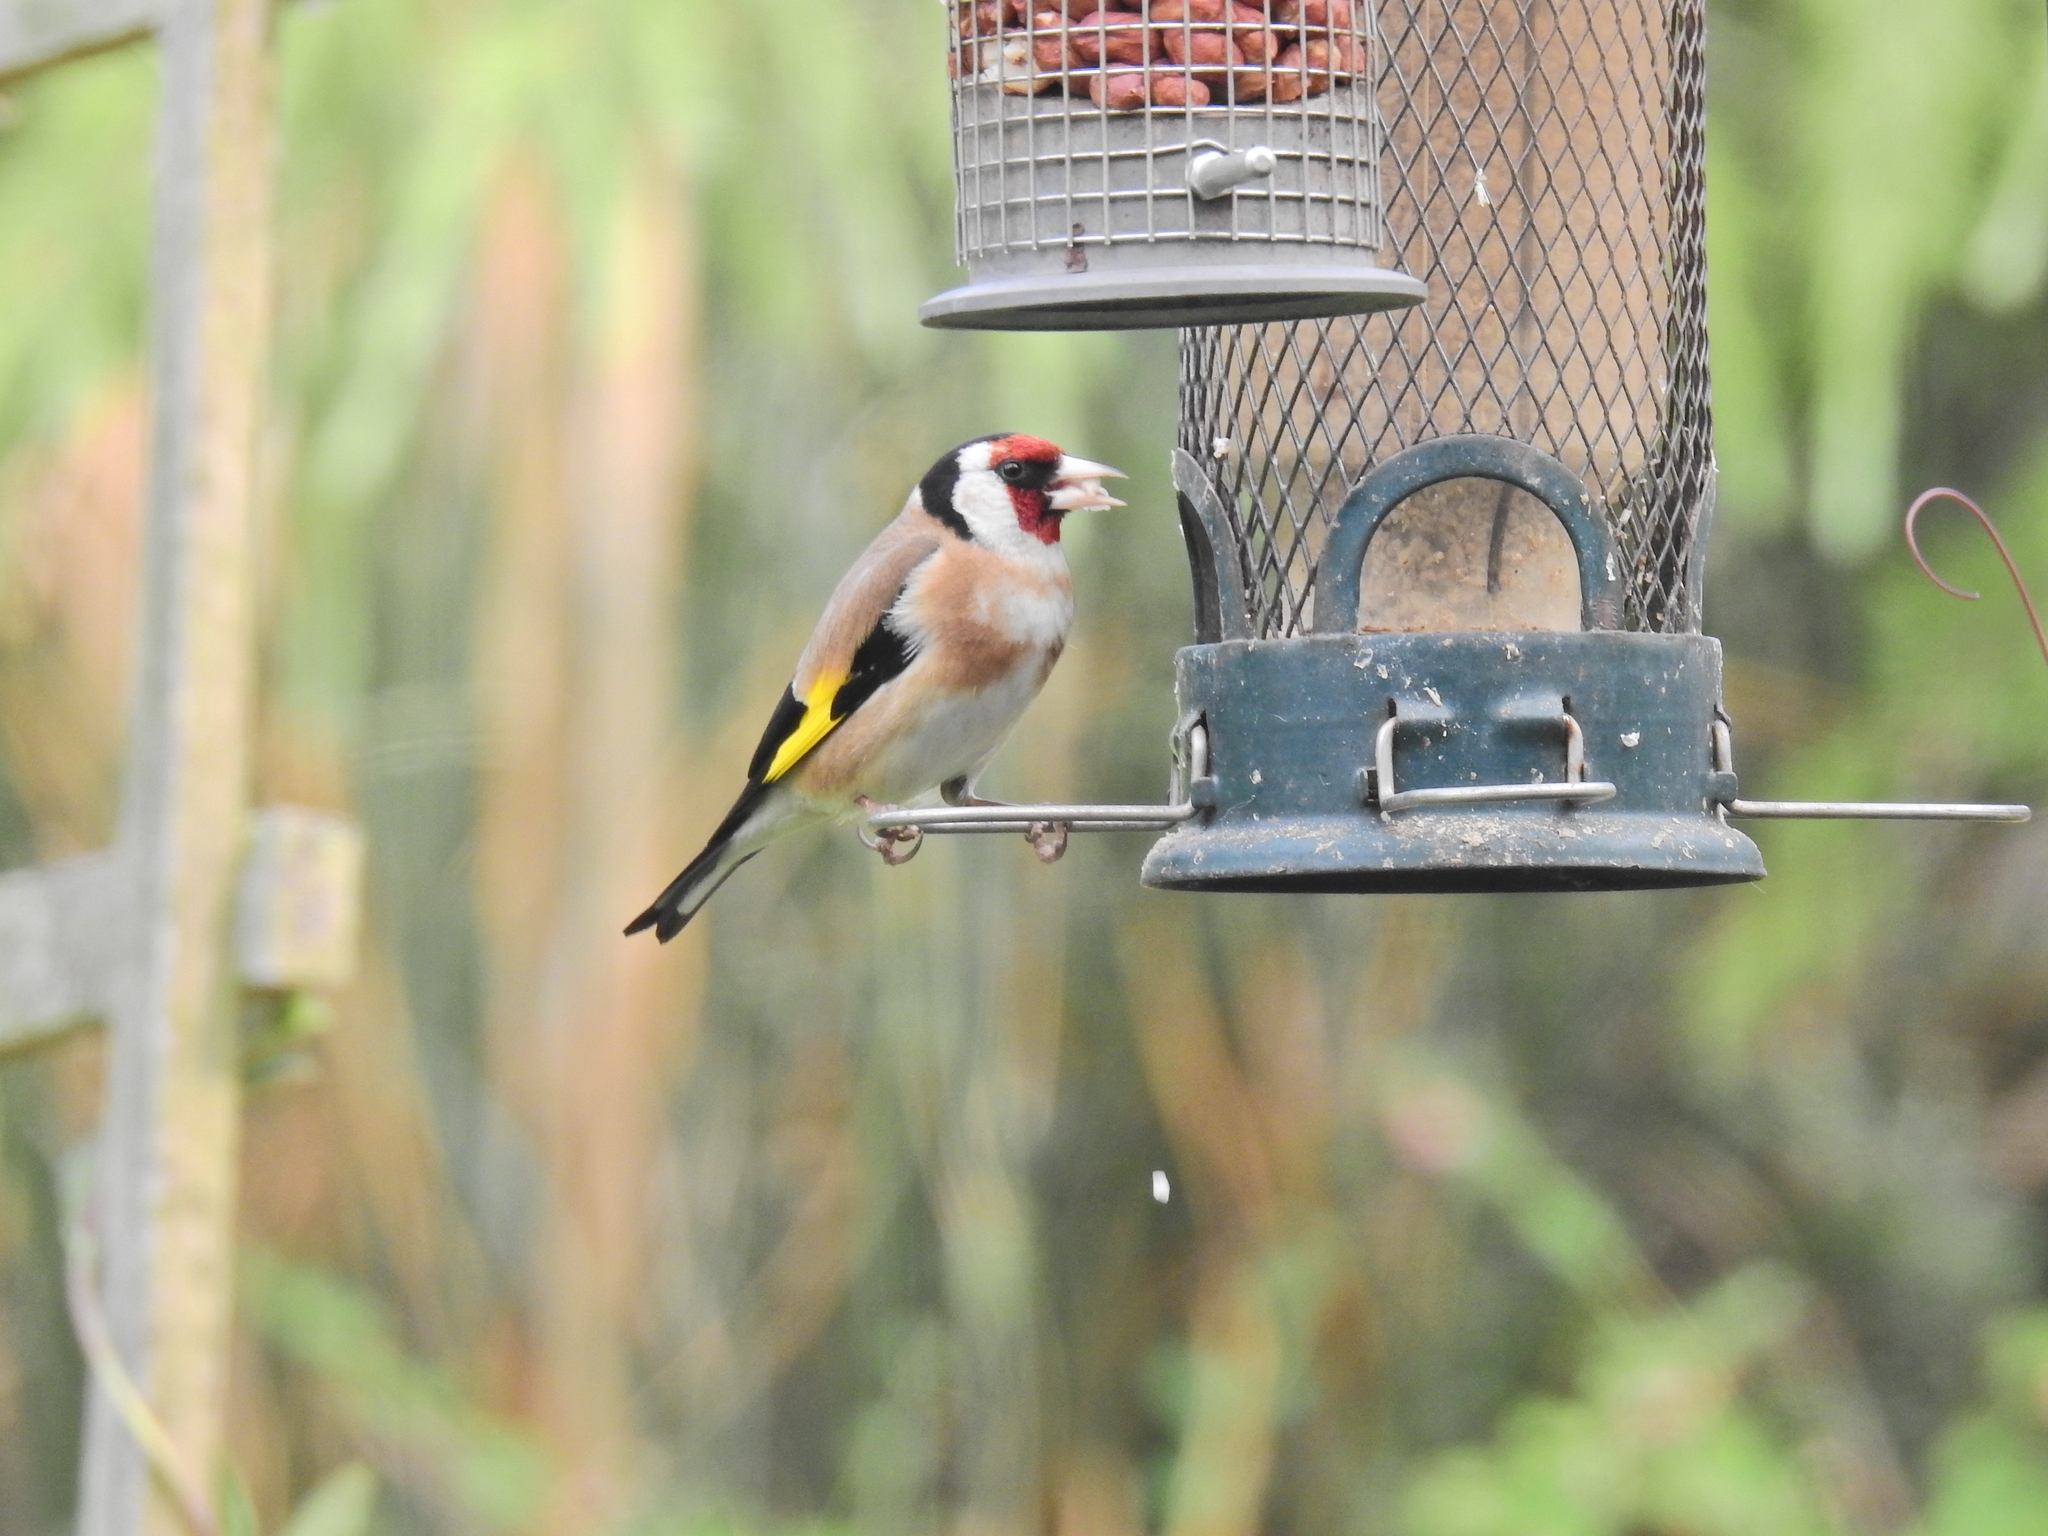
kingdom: Animalia
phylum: Chordata
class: Aves
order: Passeriformes
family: Fringillidae
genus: Carduelis
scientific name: Carduelis carduelis
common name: European goldfinch
